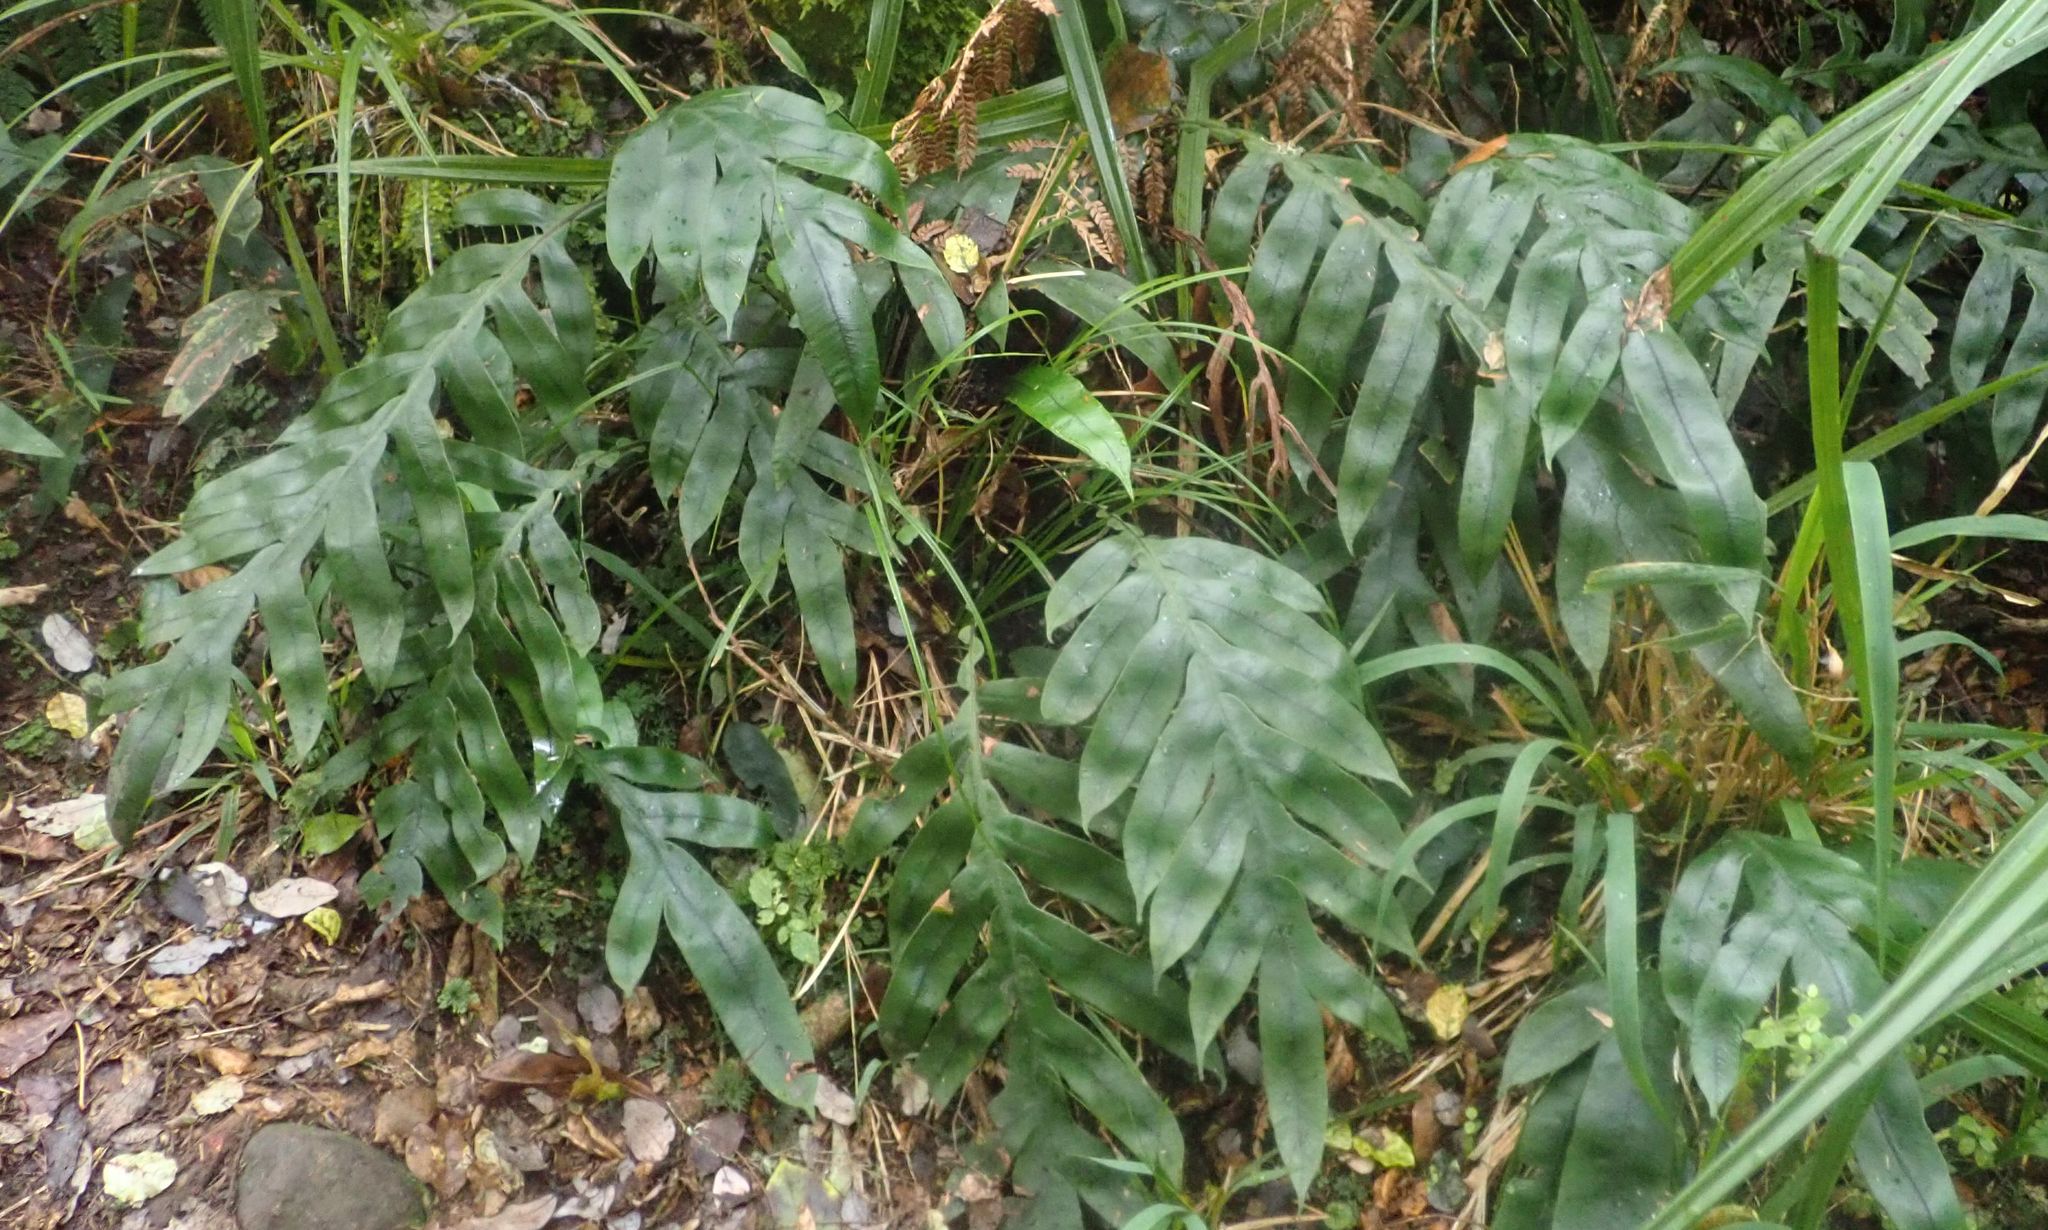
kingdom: Plantae
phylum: Tracheophyta
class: Polypodiopsida
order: Polypodiales
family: Blechnaceae
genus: Austroblechnum
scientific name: Austroblechnum colensoi
